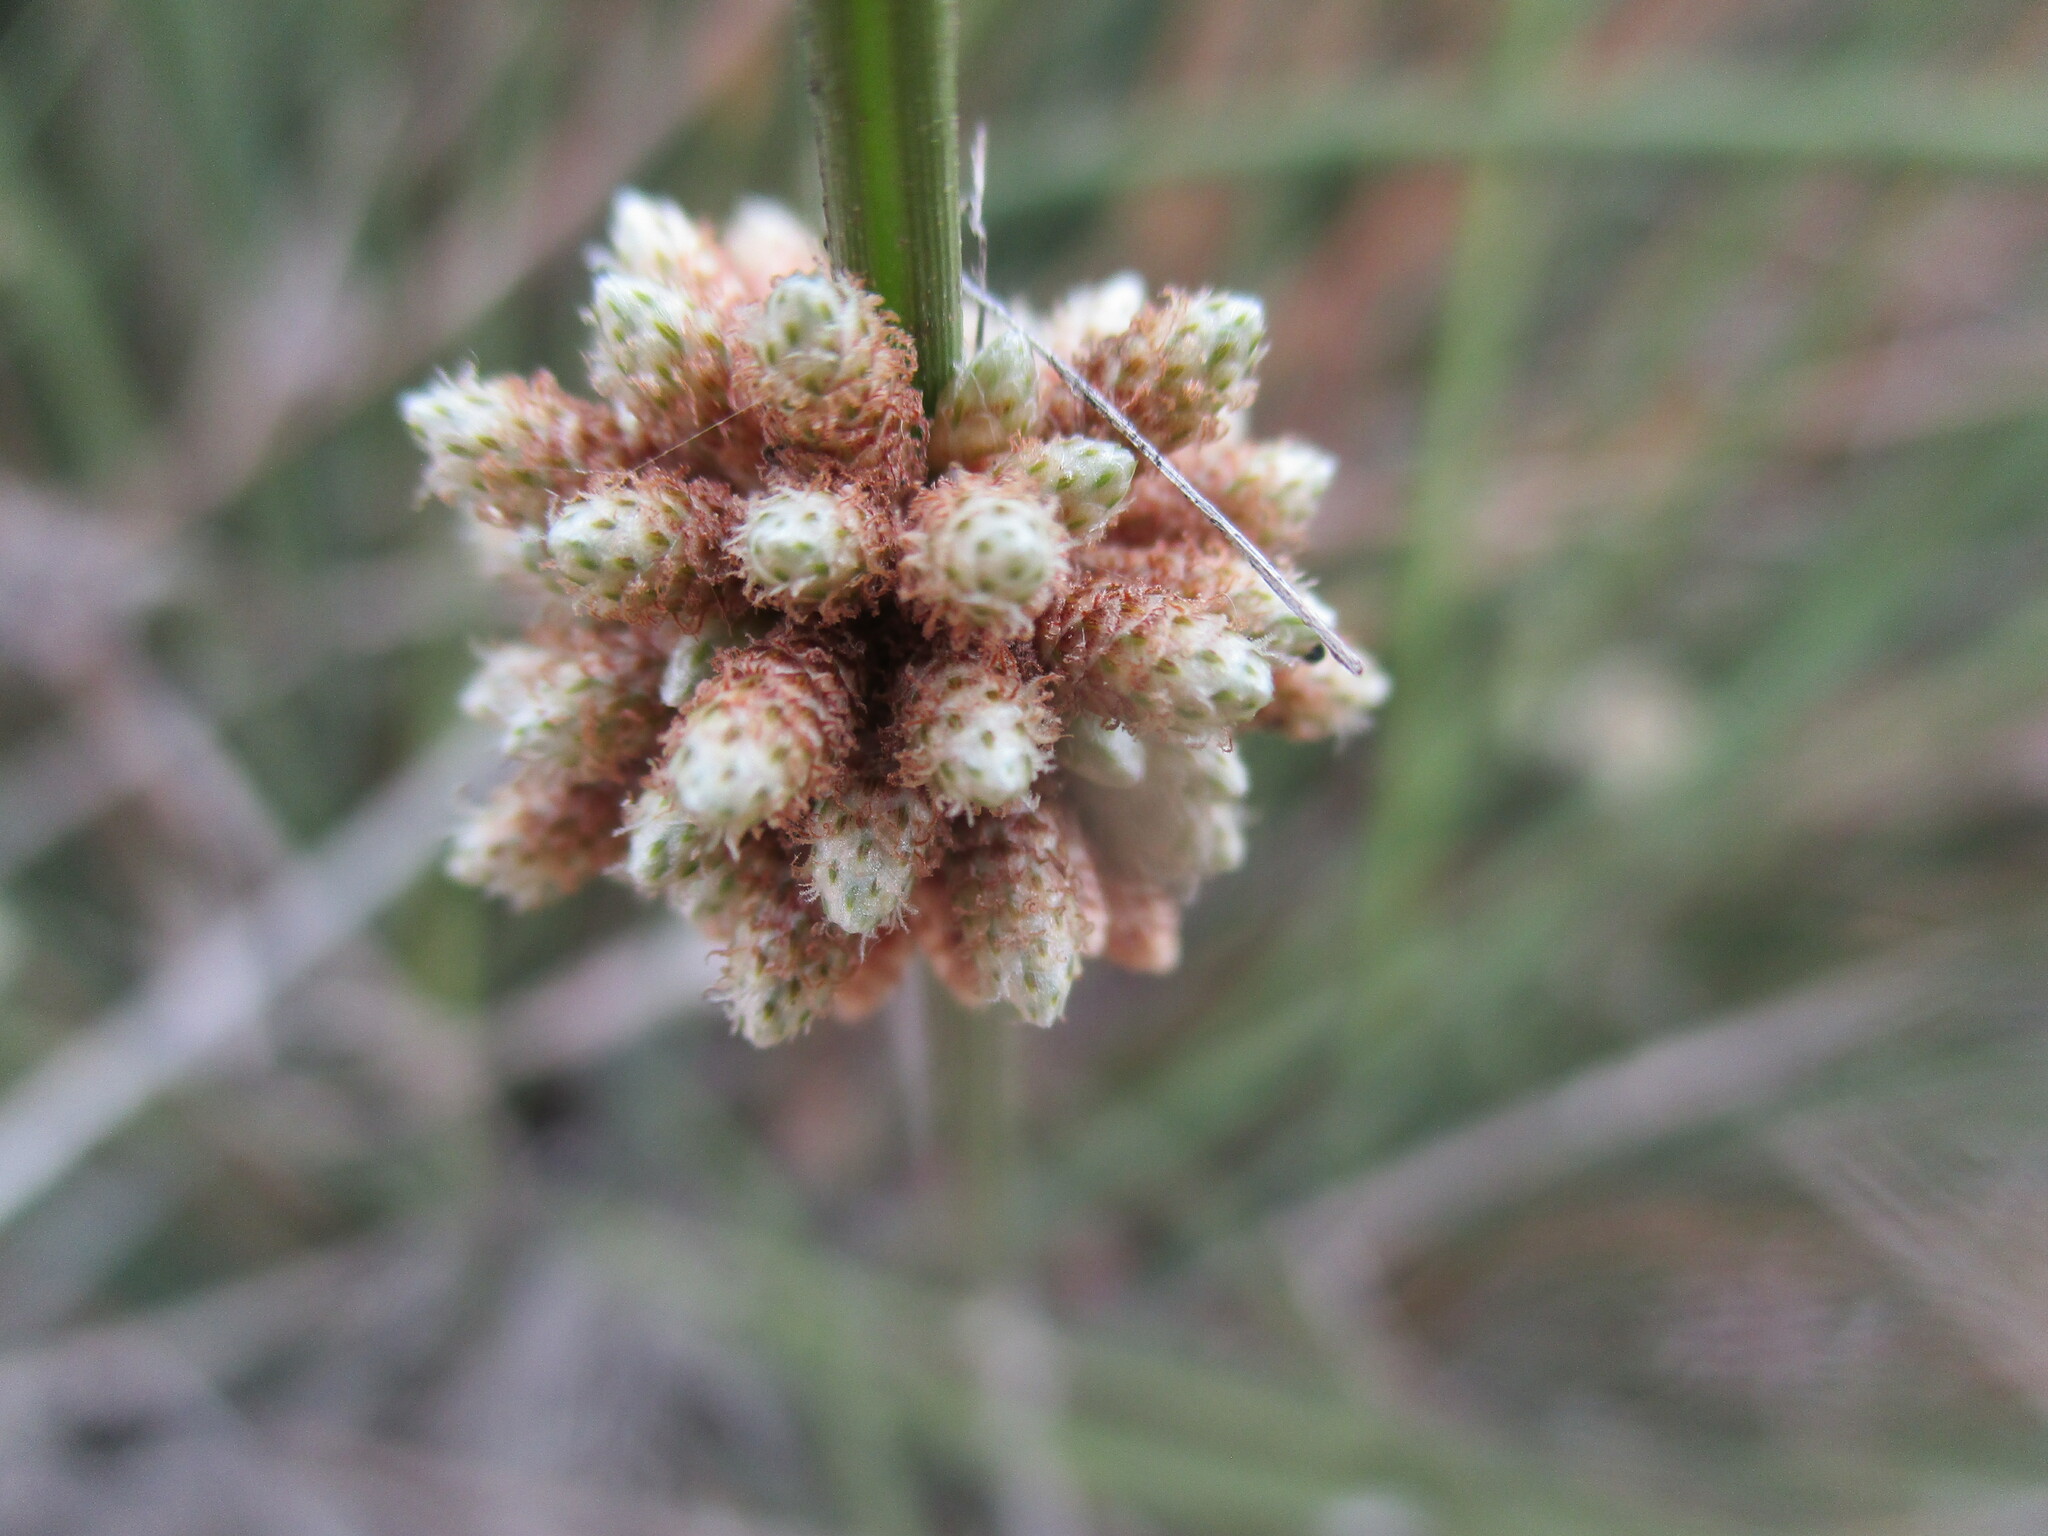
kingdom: Plantae
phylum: Tracheophyta
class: Liliopsida
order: Poales
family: Cyperaceae
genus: Afroscirpoides
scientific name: Afroscirpoides dioeca
